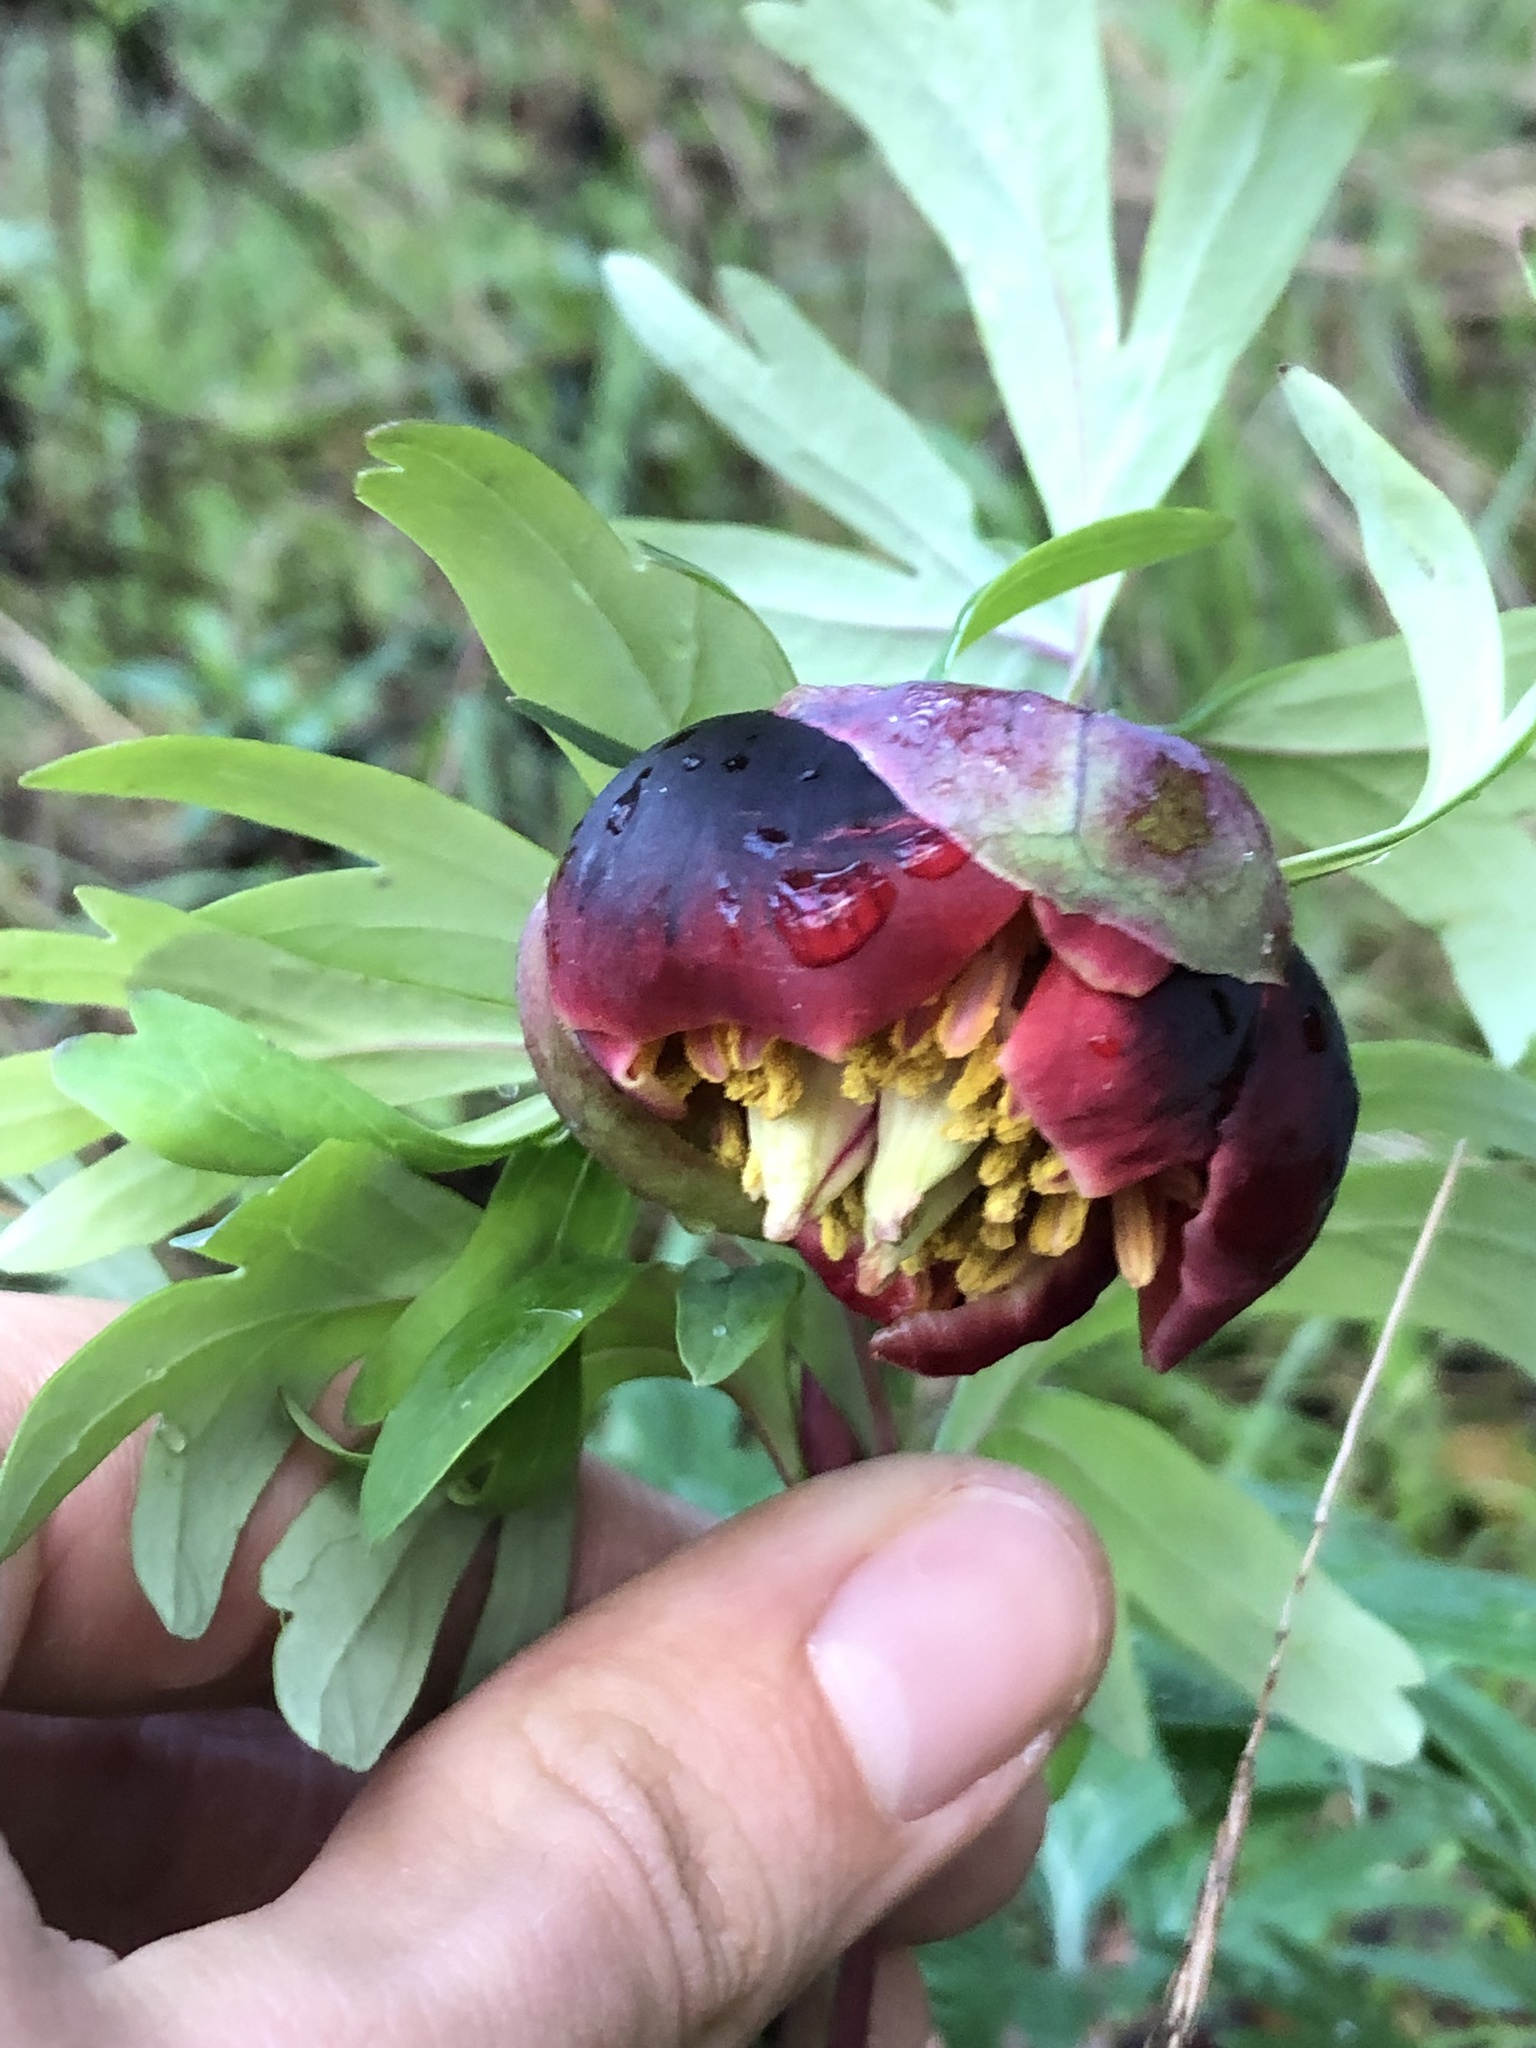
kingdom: Plantae
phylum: Tracheophyta
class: Magnoliopsida
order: Saxifragales
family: Paeoniaceae
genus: Paeonia
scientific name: Paeonia californica
